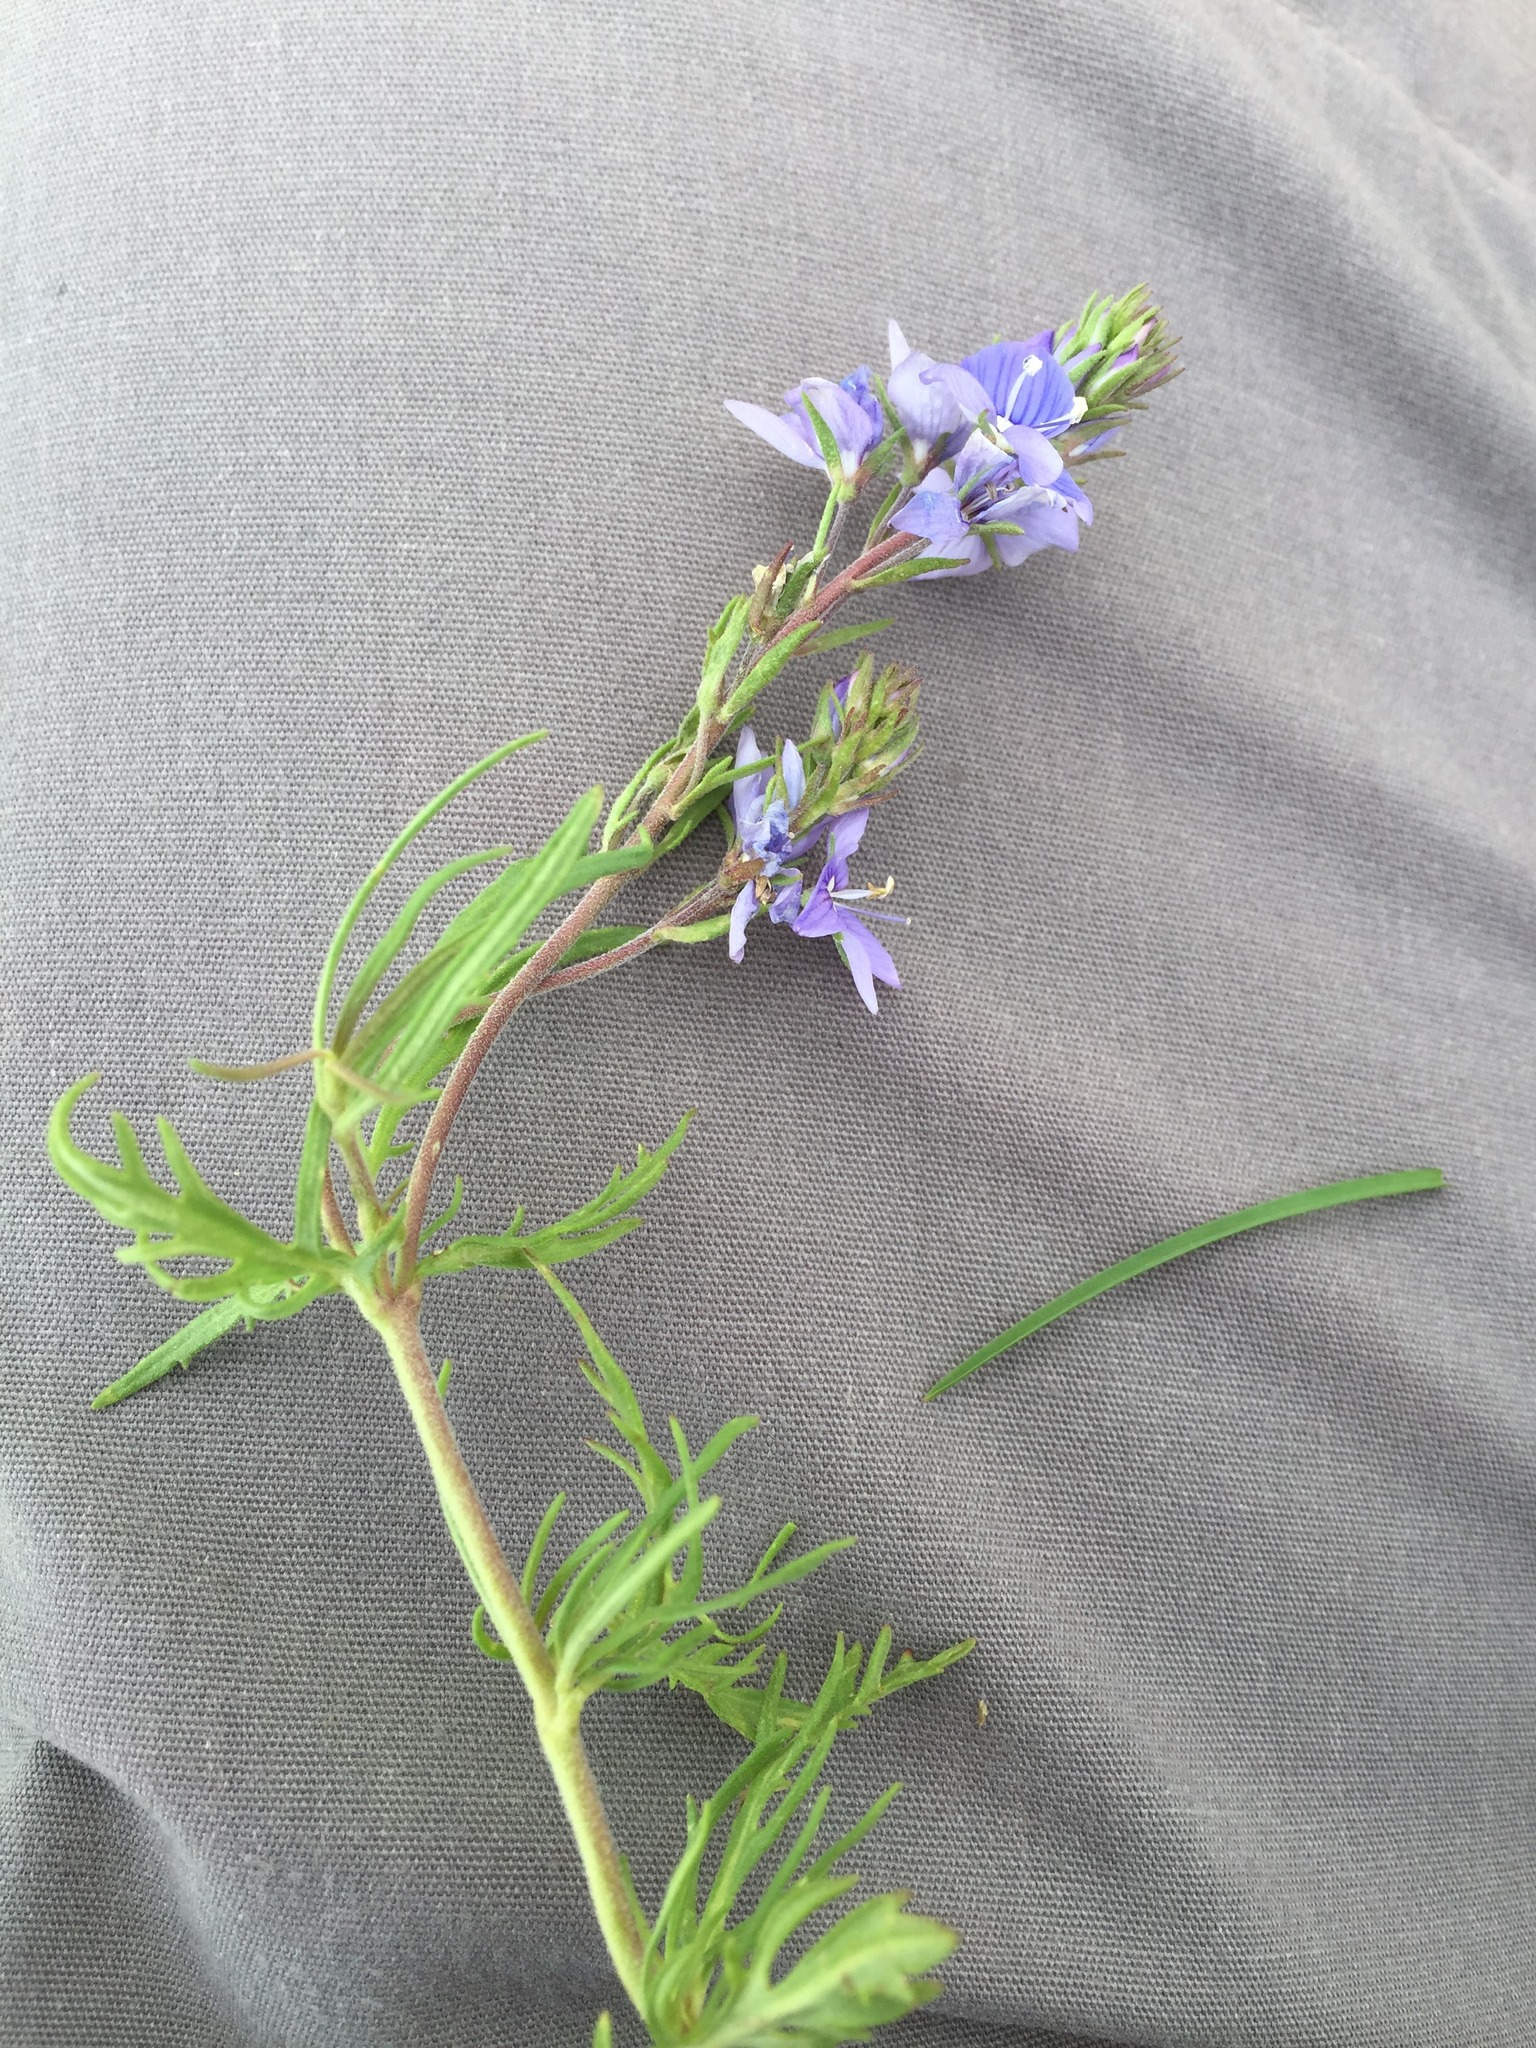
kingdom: Plantae
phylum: Tracheophyta
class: Magnoliopsida
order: Lamiales
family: Plantaginaceae
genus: Veronica
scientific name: Veronica multifida
